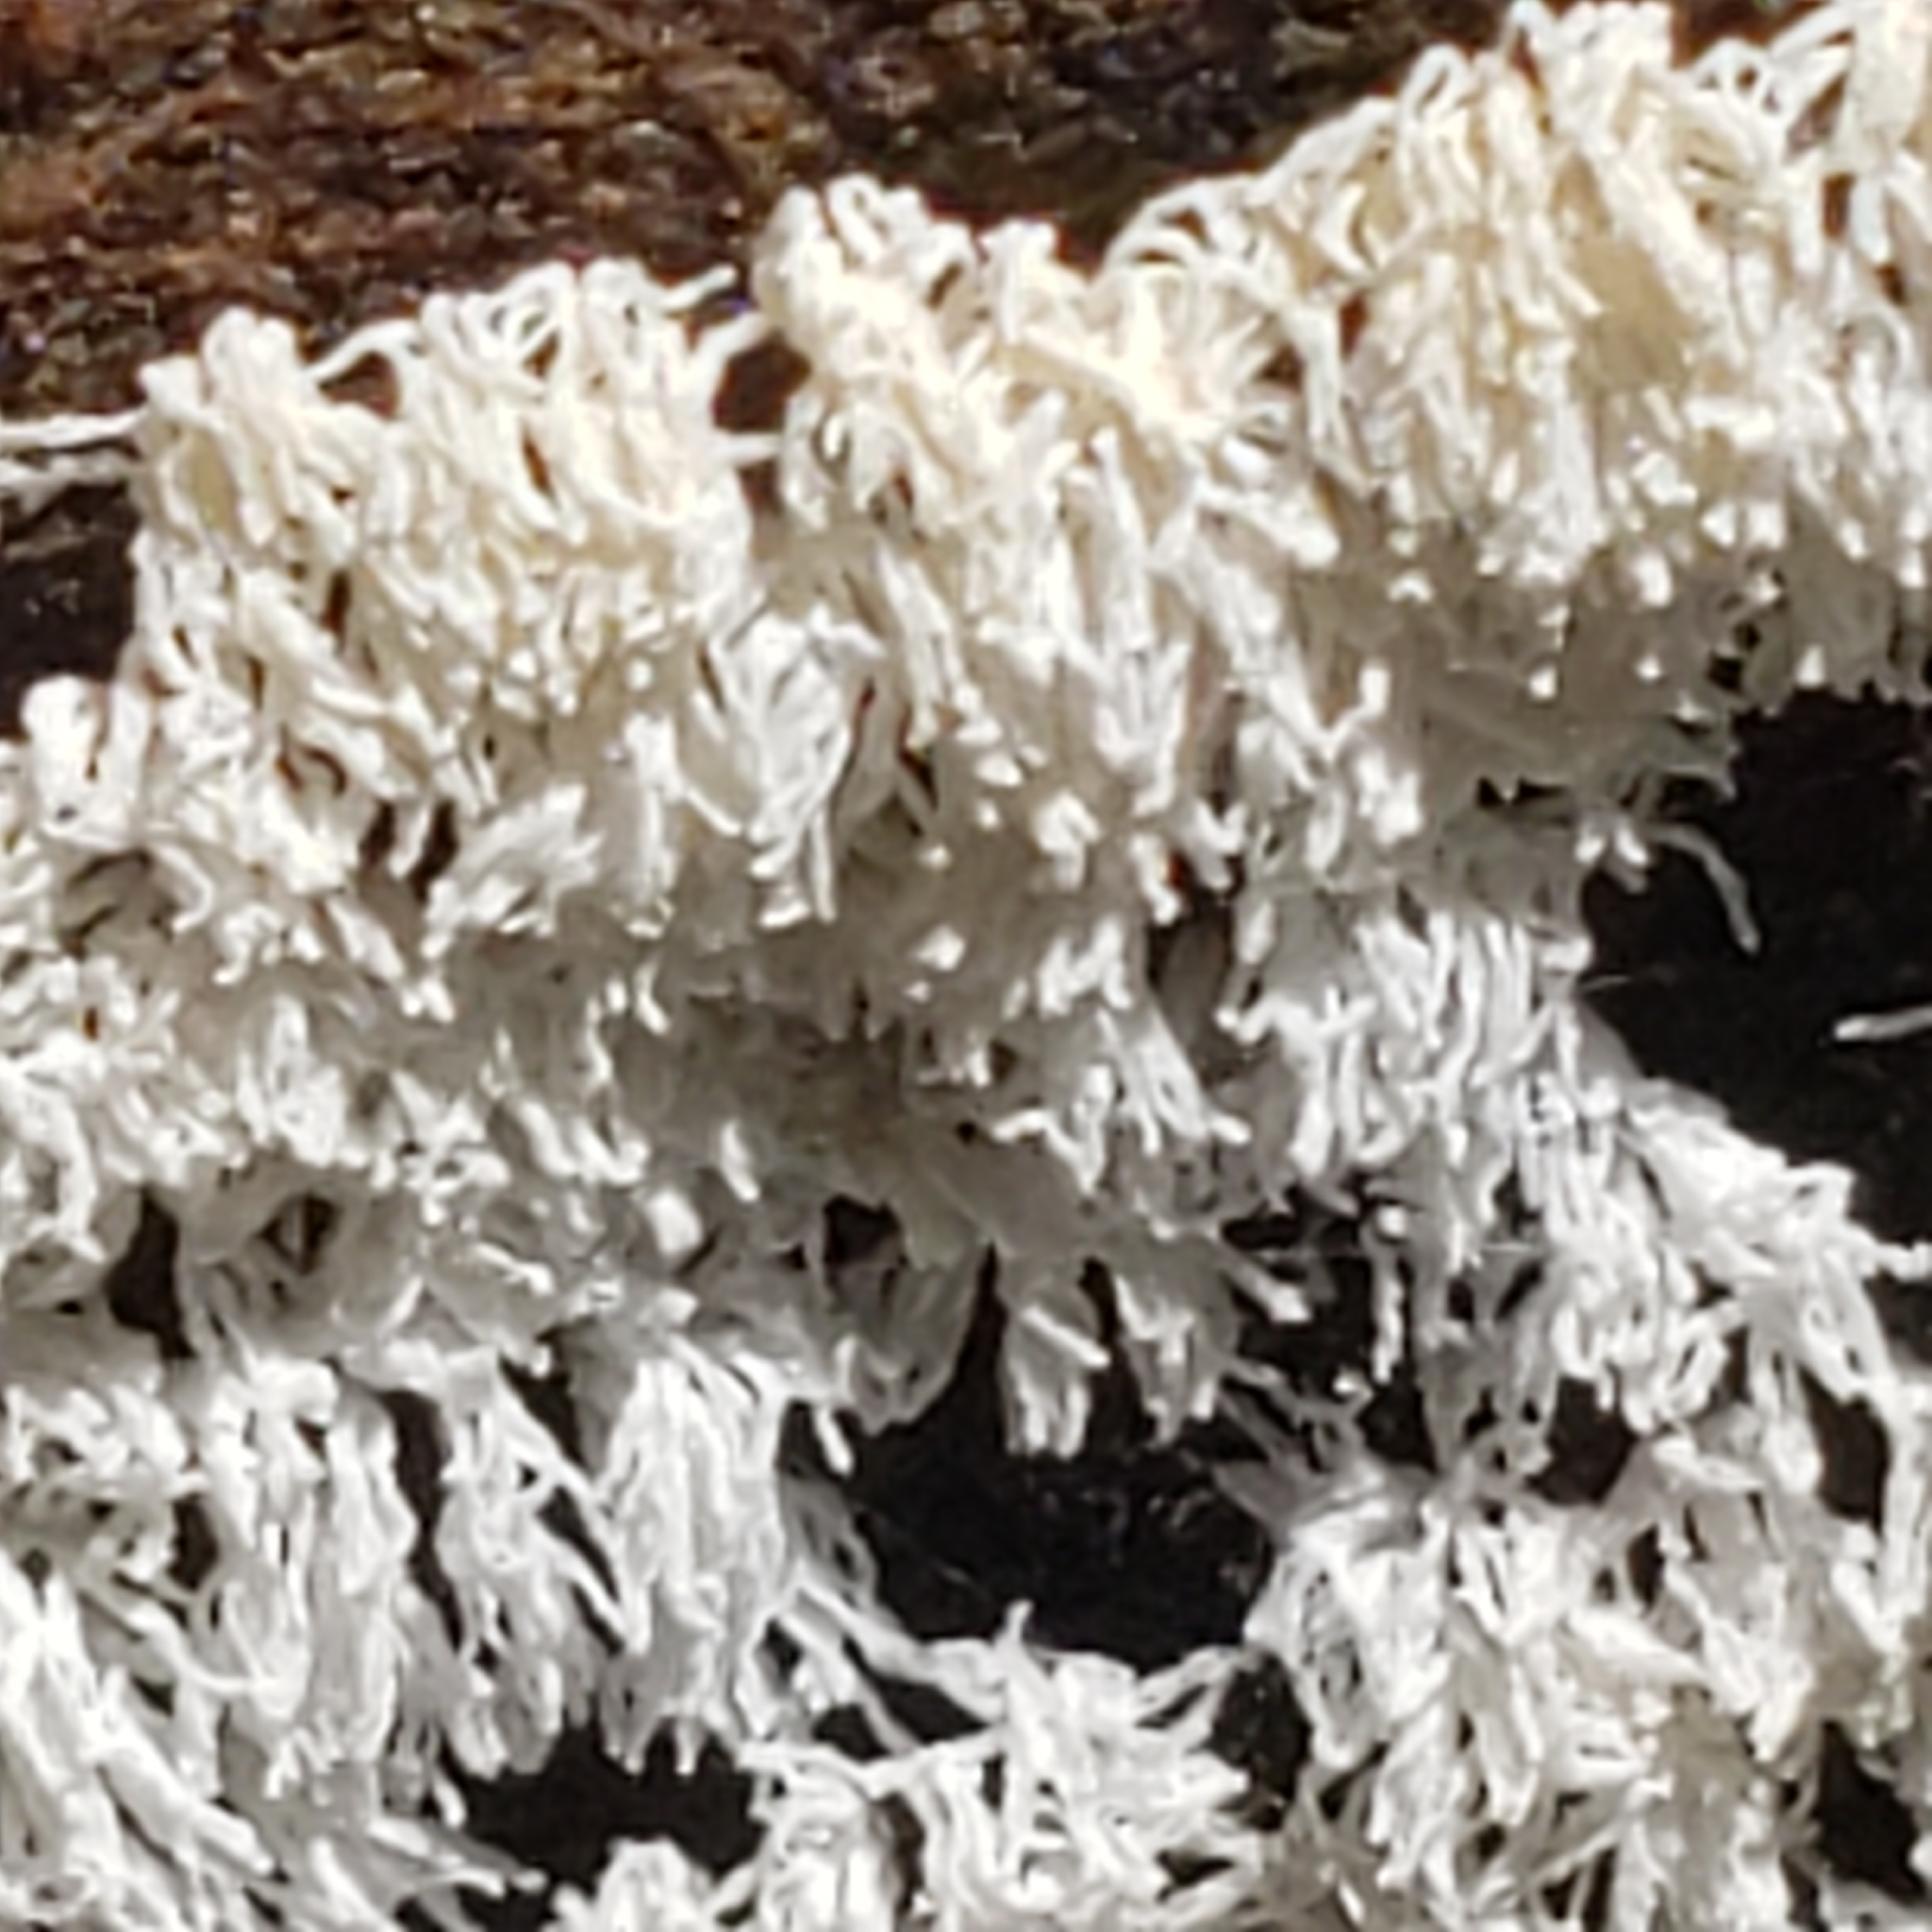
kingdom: Protozoa
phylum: Mycetozoa
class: Protosteliomycetes
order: Ceratiomyxales
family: Ceratiomyxaceae
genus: Ceratiomyxa
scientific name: Ceratiomyxa fruticulosa
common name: Honeycomb coral slime mold
